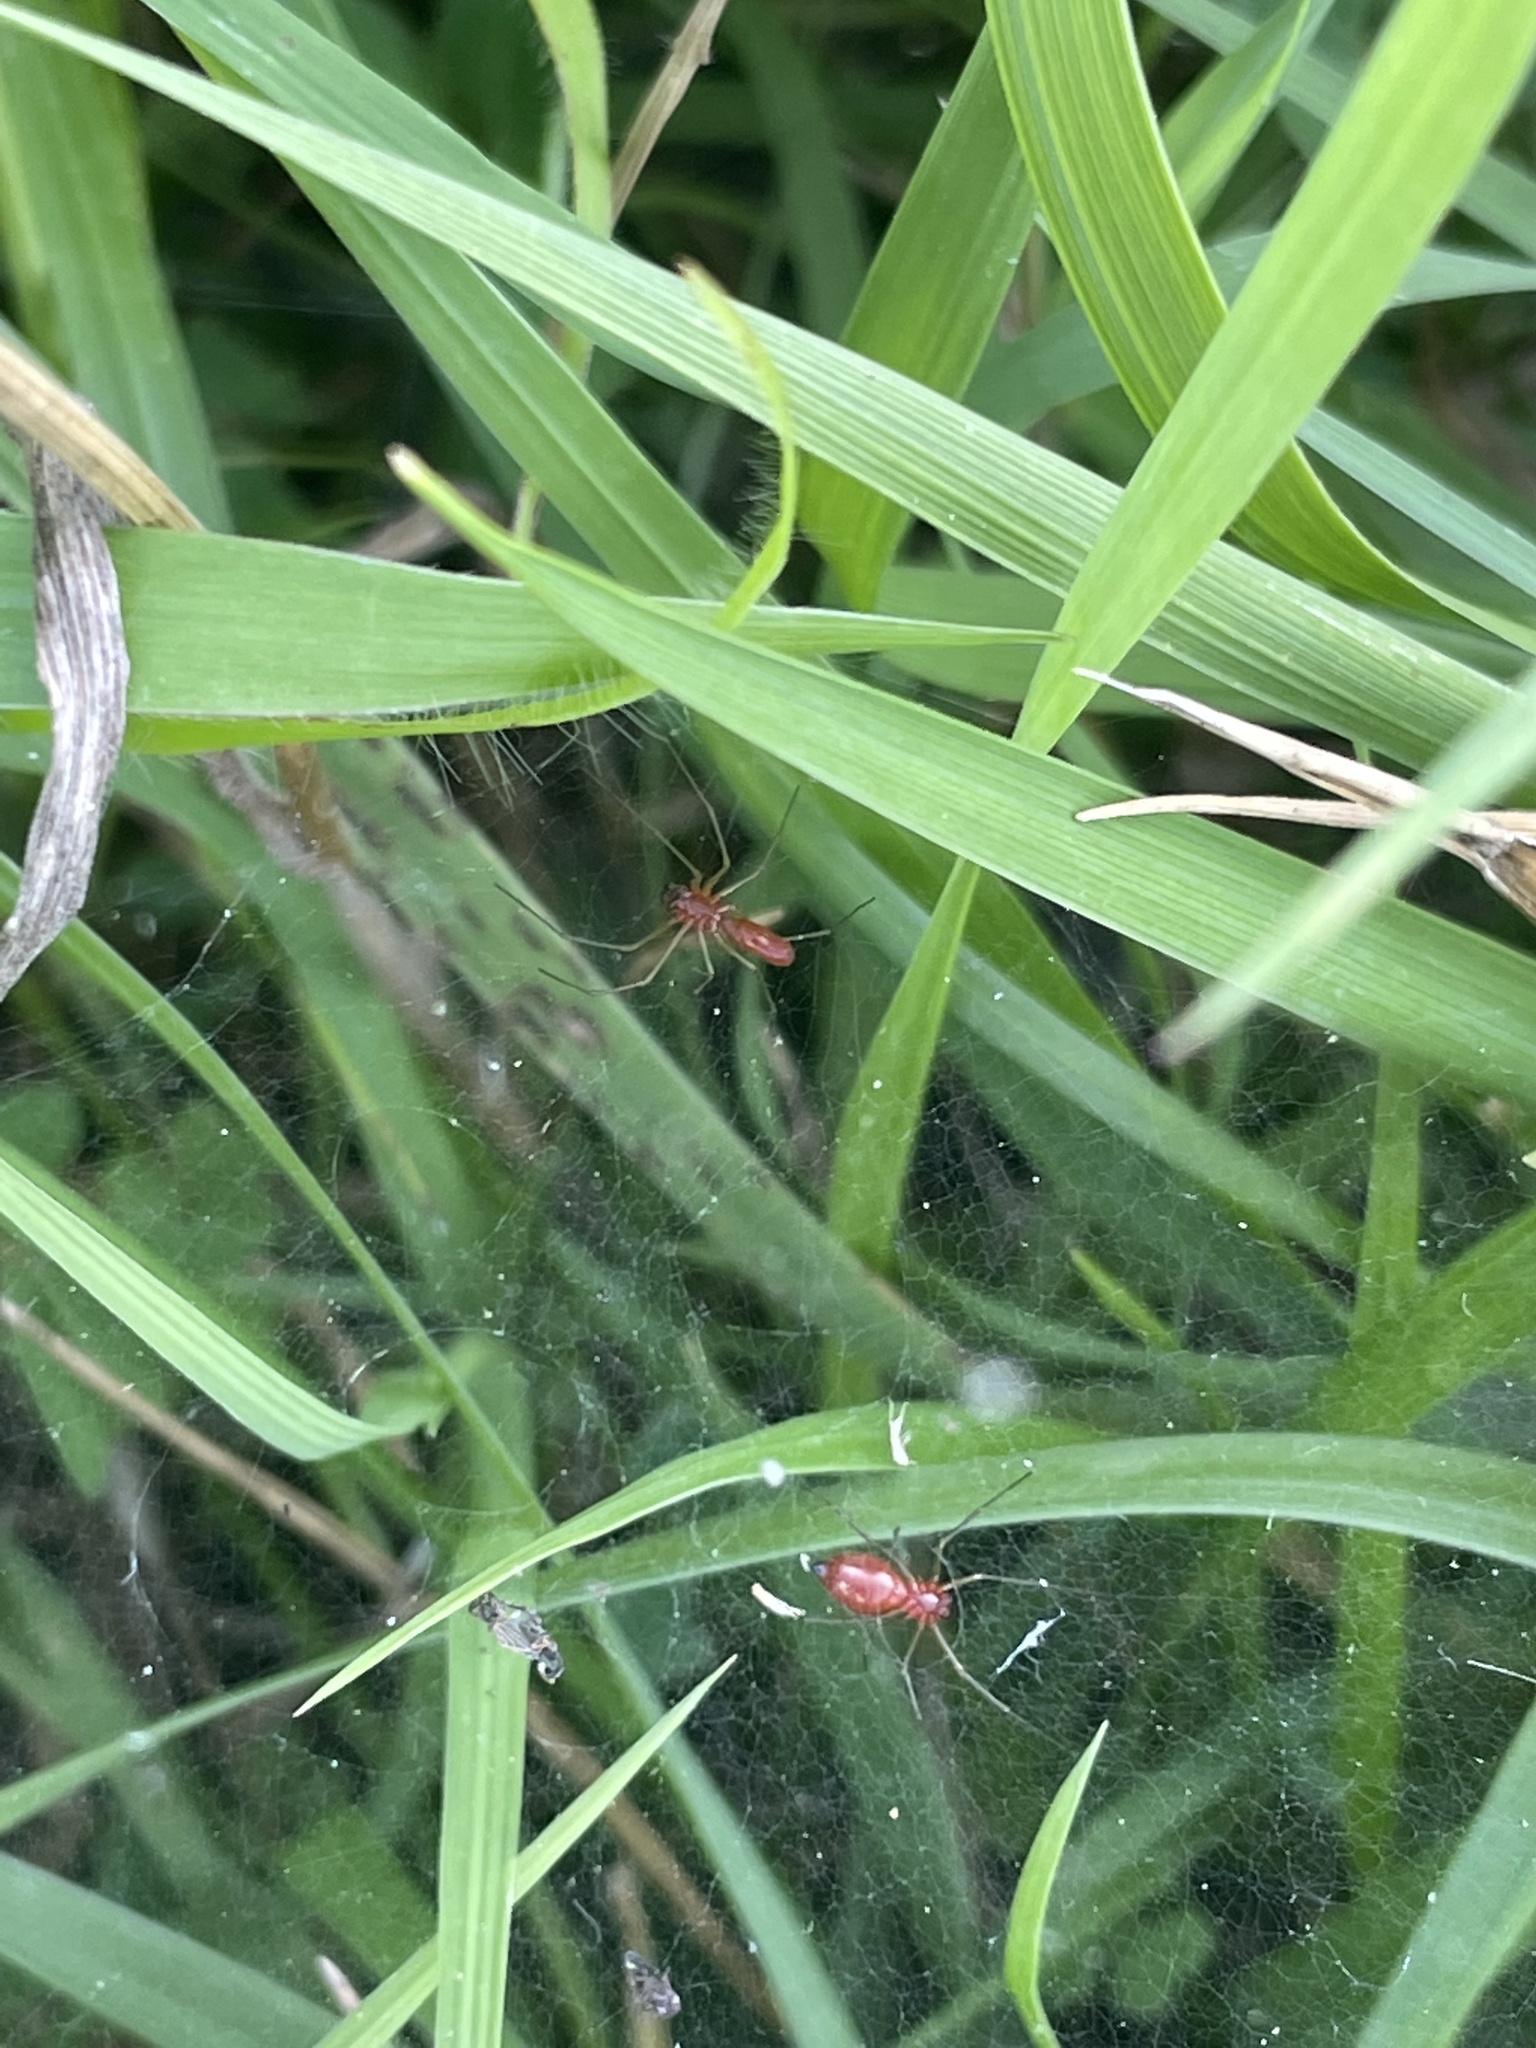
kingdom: Animalia
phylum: Arthropoda
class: Arachnida
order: Araneae
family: Linyphiidae
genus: Florinda
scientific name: Florinda coccinea
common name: Black-tailed red sheetweaver
